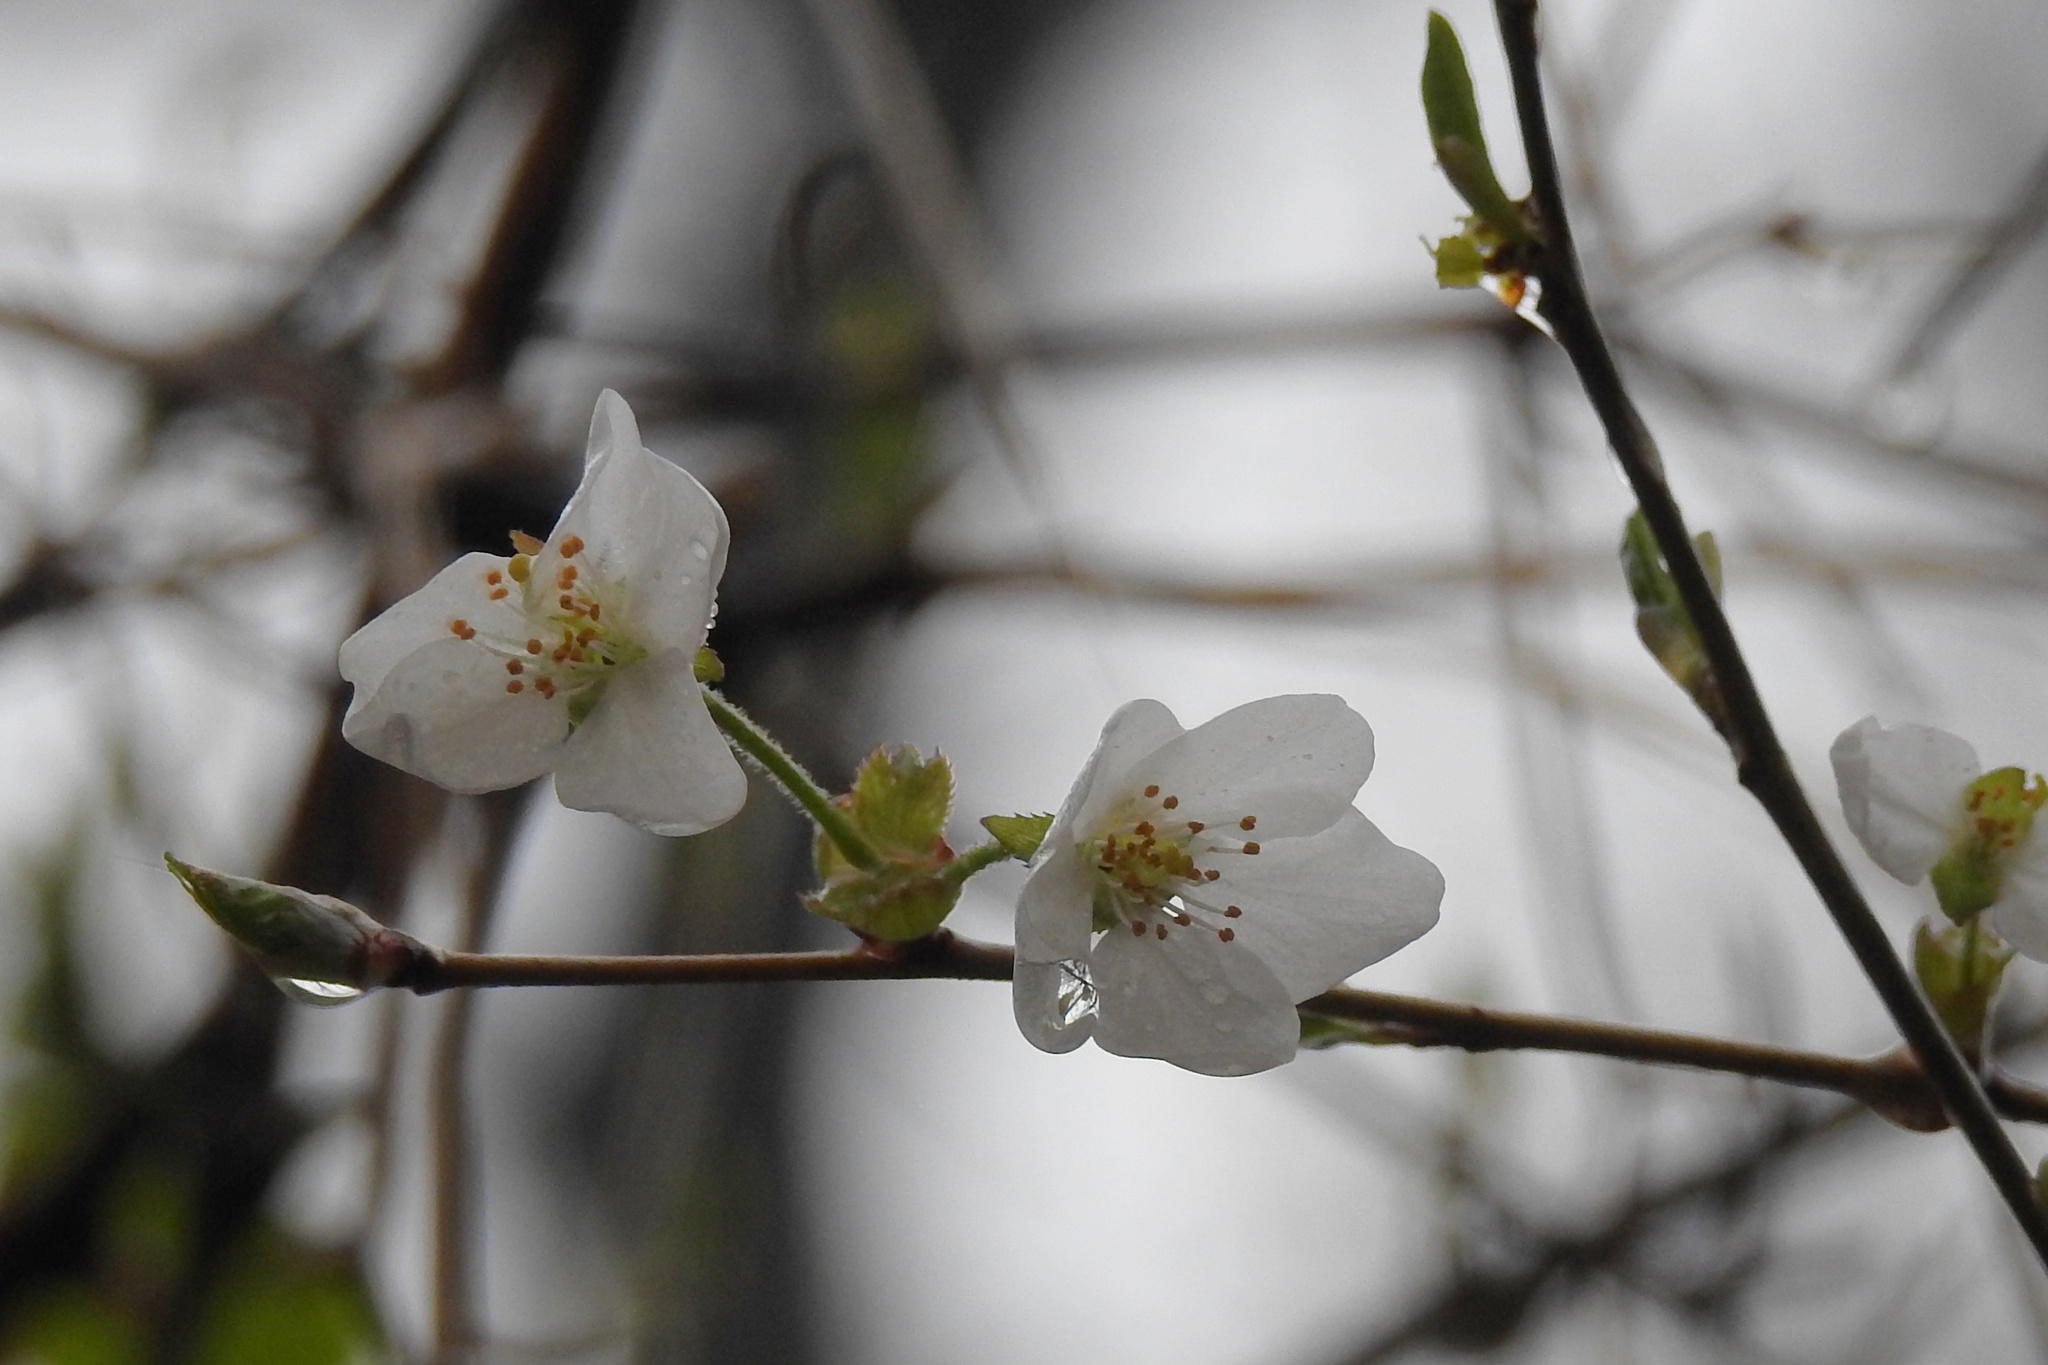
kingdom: Plantae
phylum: Tracheophyta
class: Magnoliopsida
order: Rosales
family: Rosaceae
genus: Pyrus
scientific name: Pyrus calleryana
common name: Callery pear
